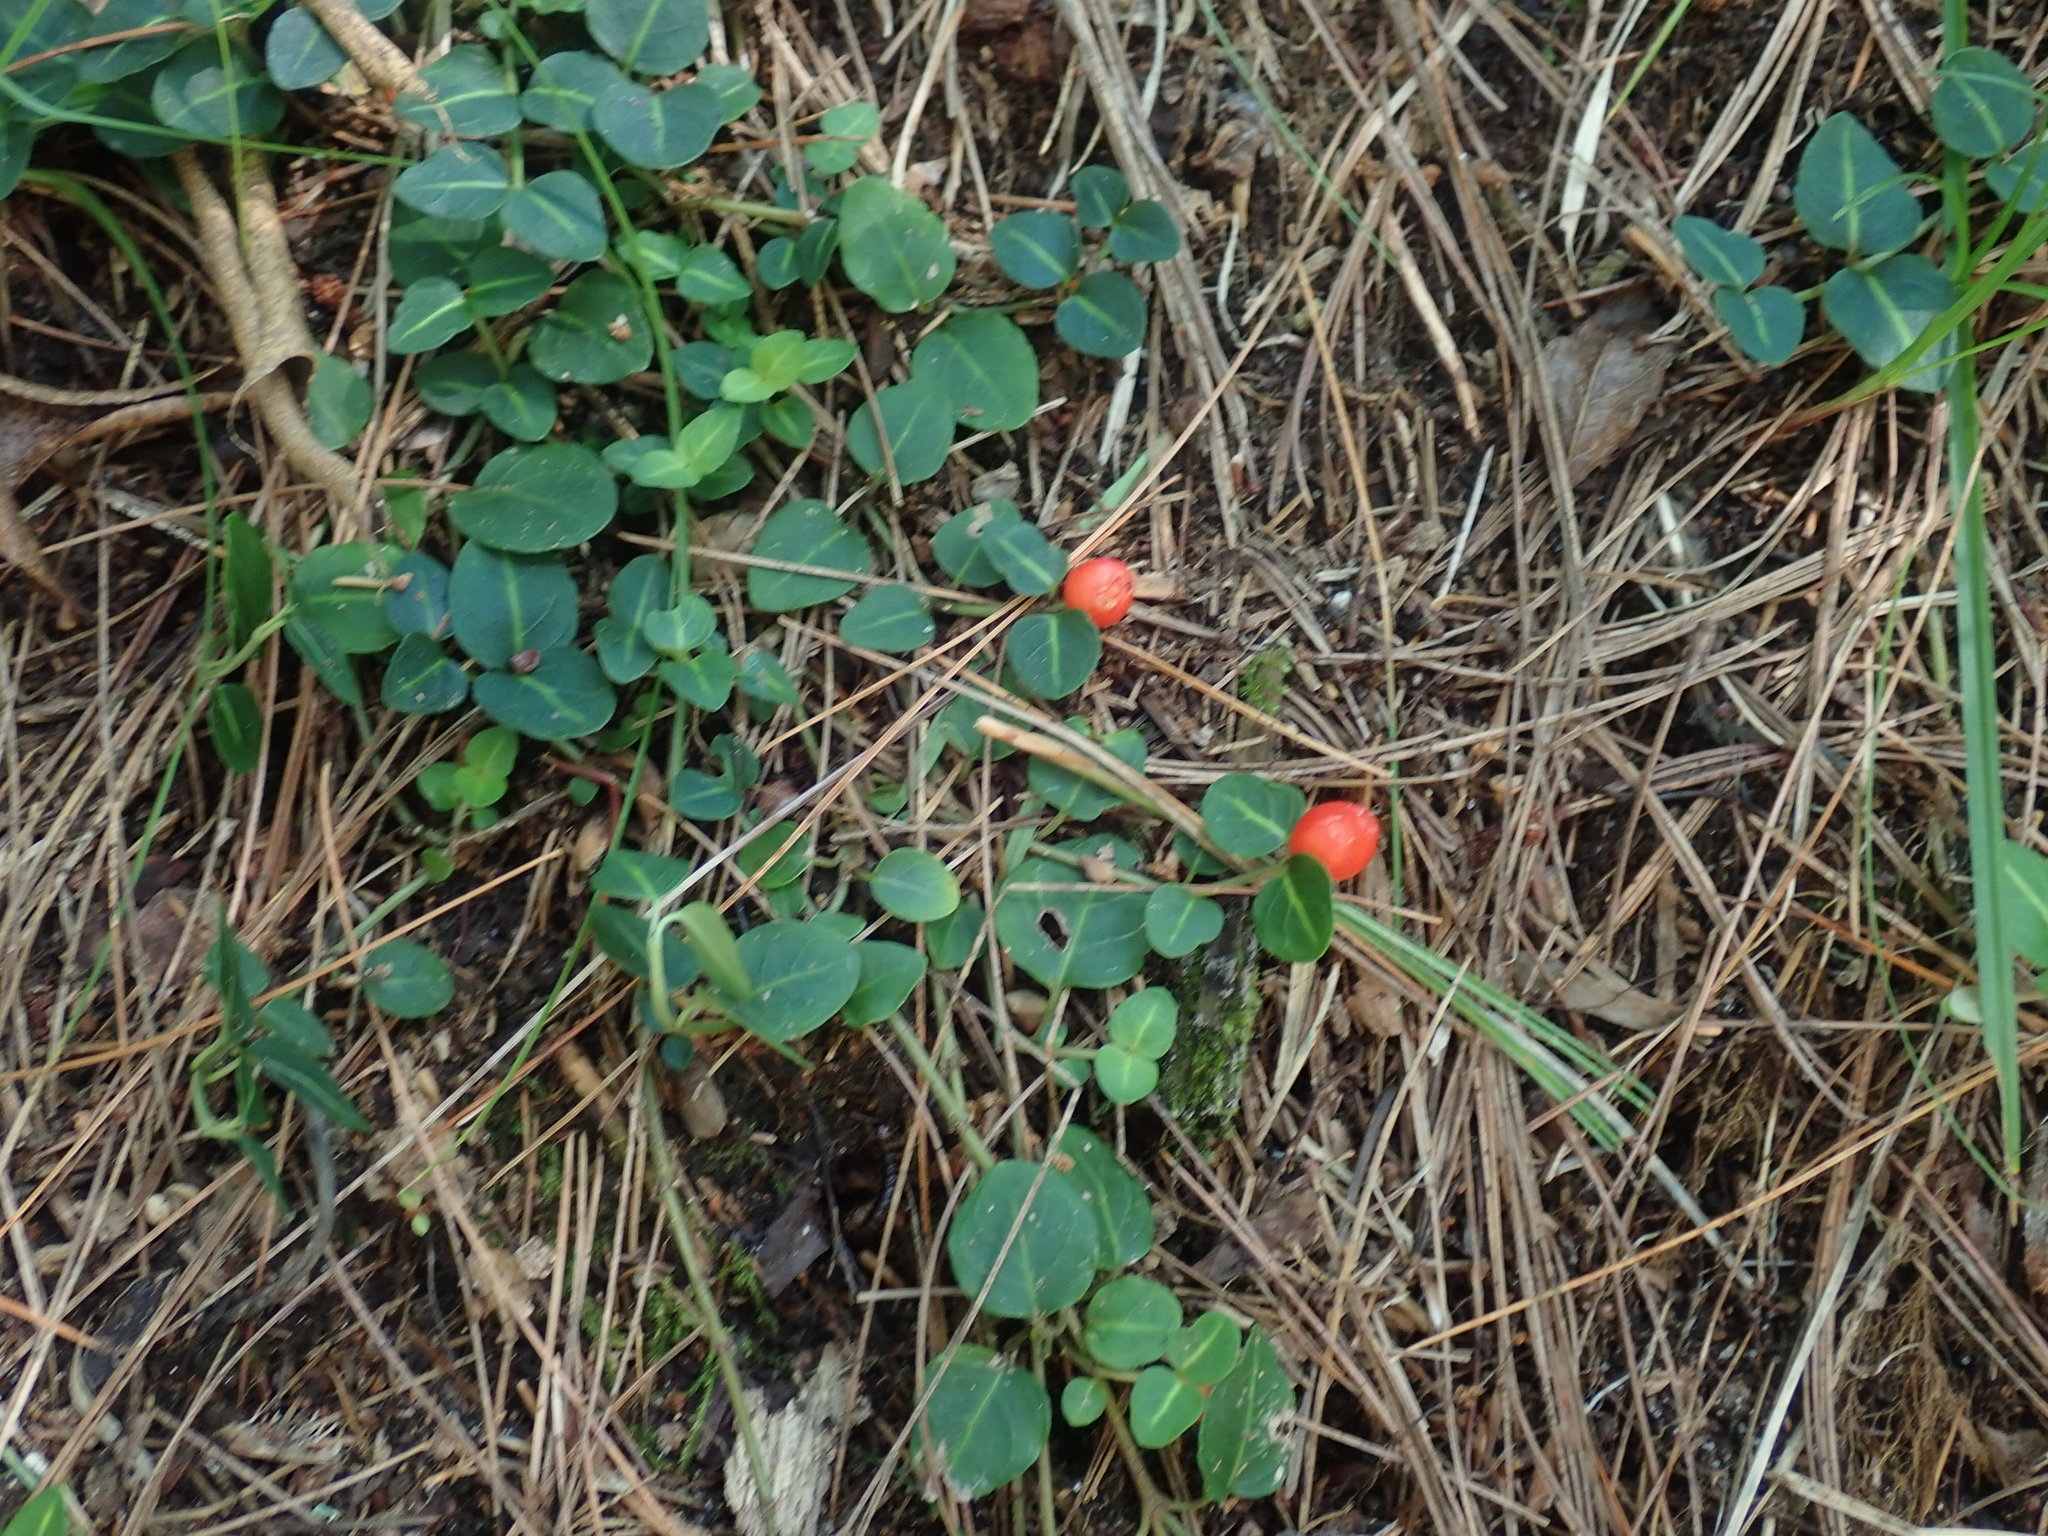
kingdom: Plantae
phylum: Tracheophyta
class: Magnoliopsida
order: Gentianales
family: Rubiaceae
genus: Mitchella
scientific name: Mitchella repens
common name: Partridge-berry
